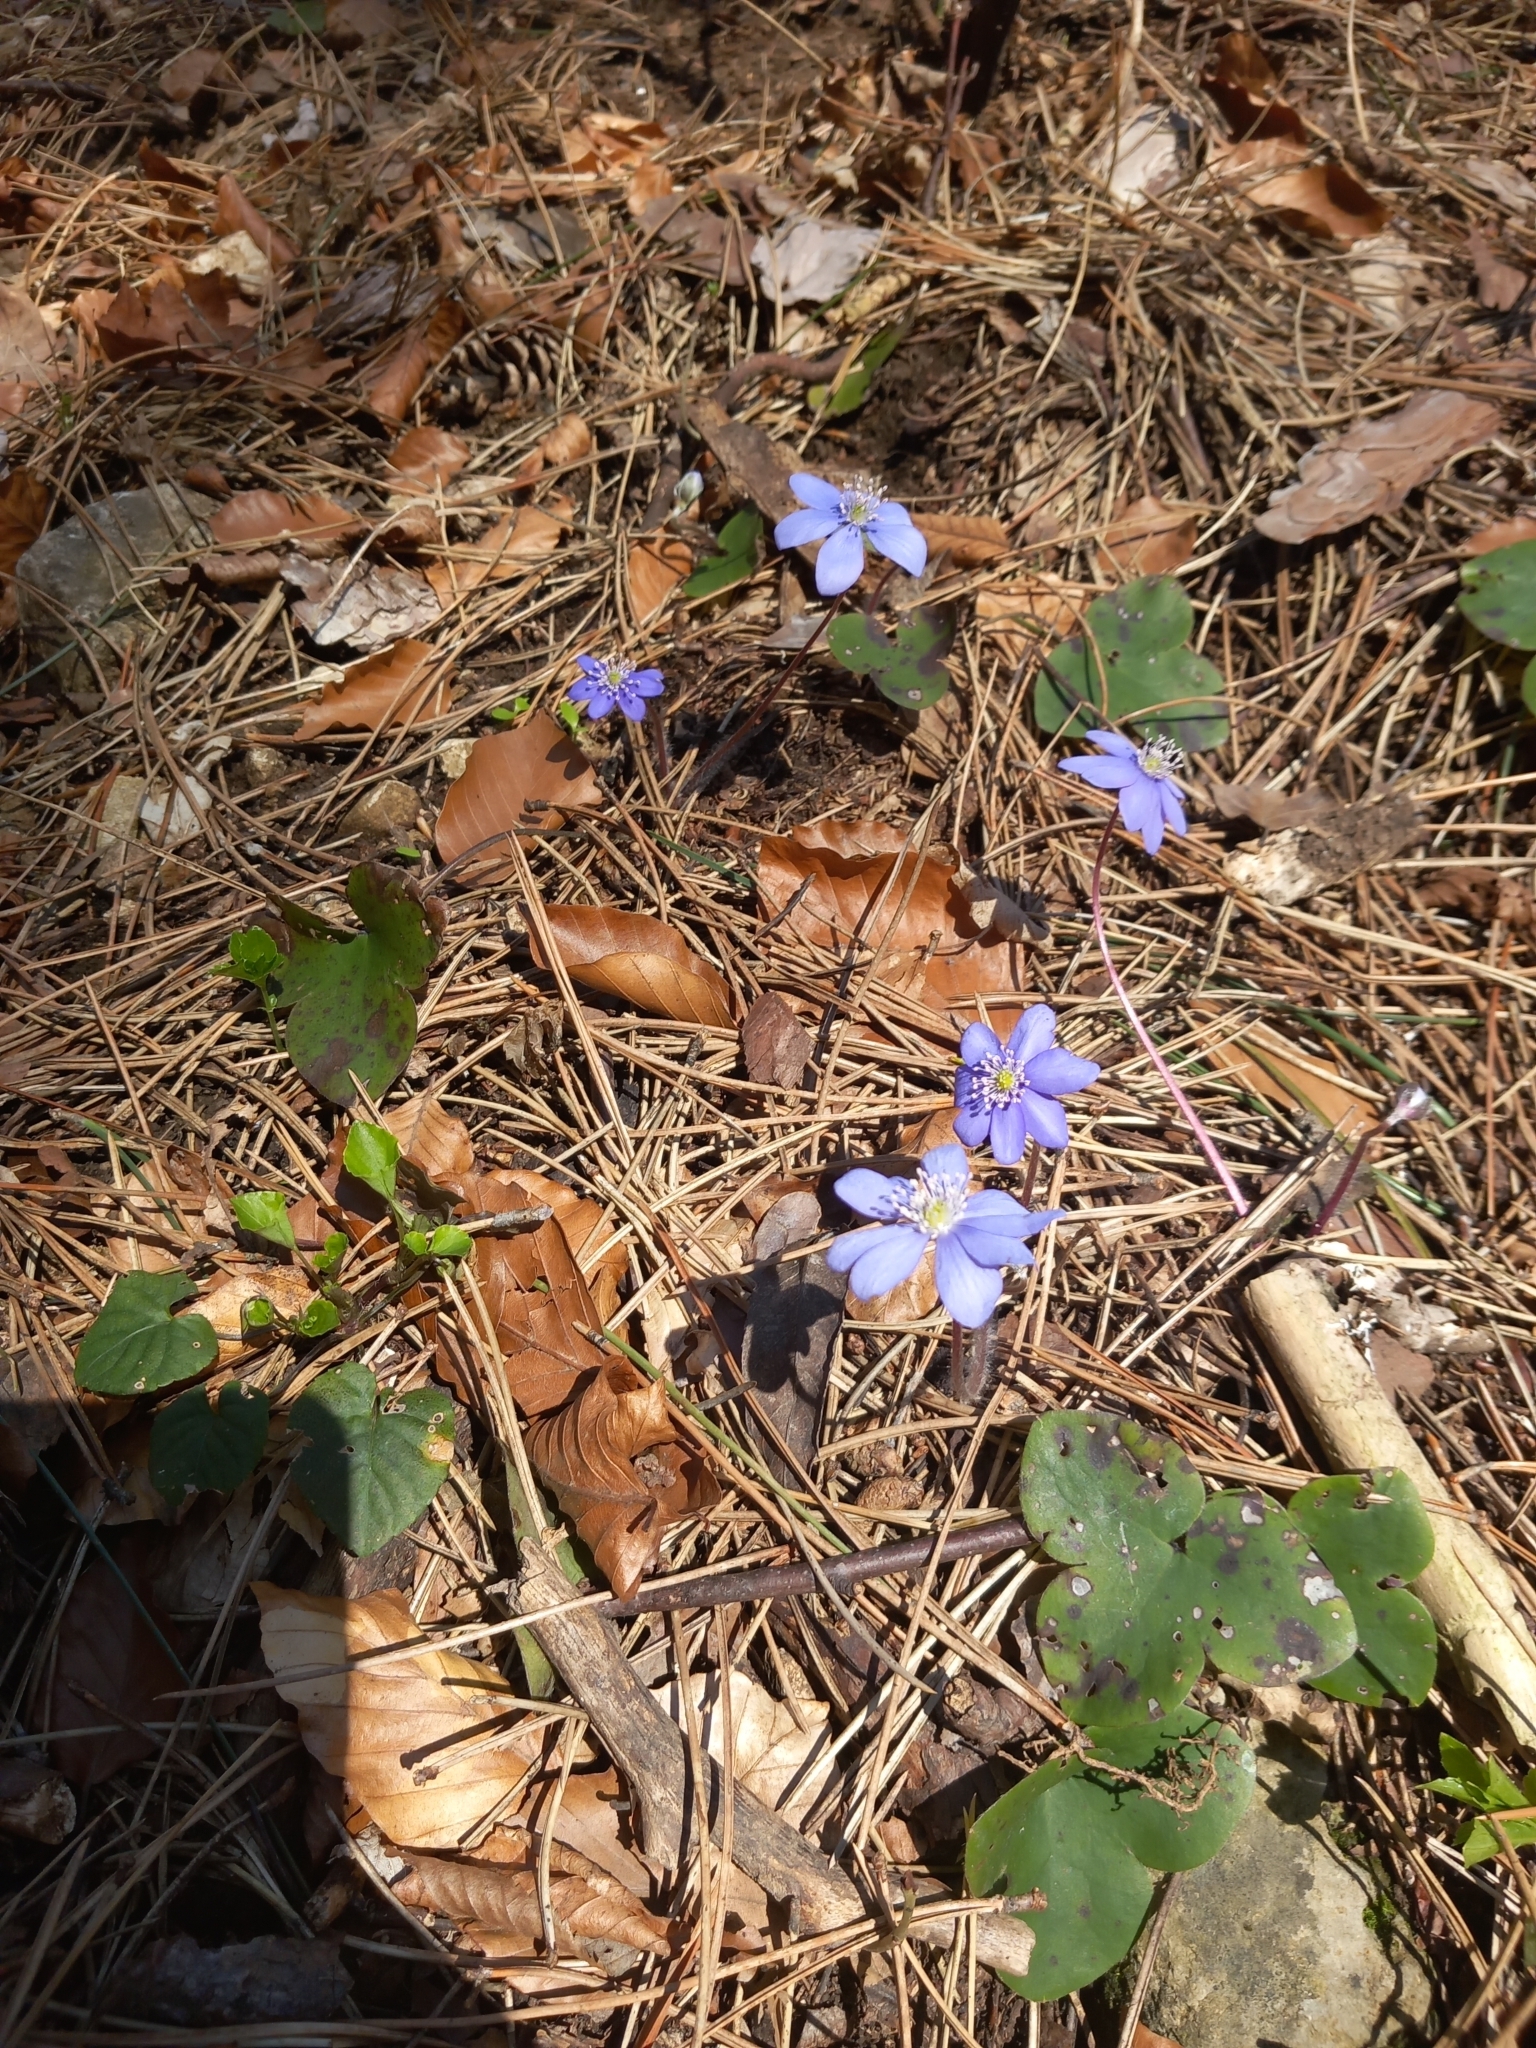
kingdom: Plantae
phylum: Tracheophyta
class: Magnoliopsida
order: Ranunculales
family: Ranunculaceae
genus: Hepatica
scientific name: Hepatica nobilis
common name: Liverleaf
